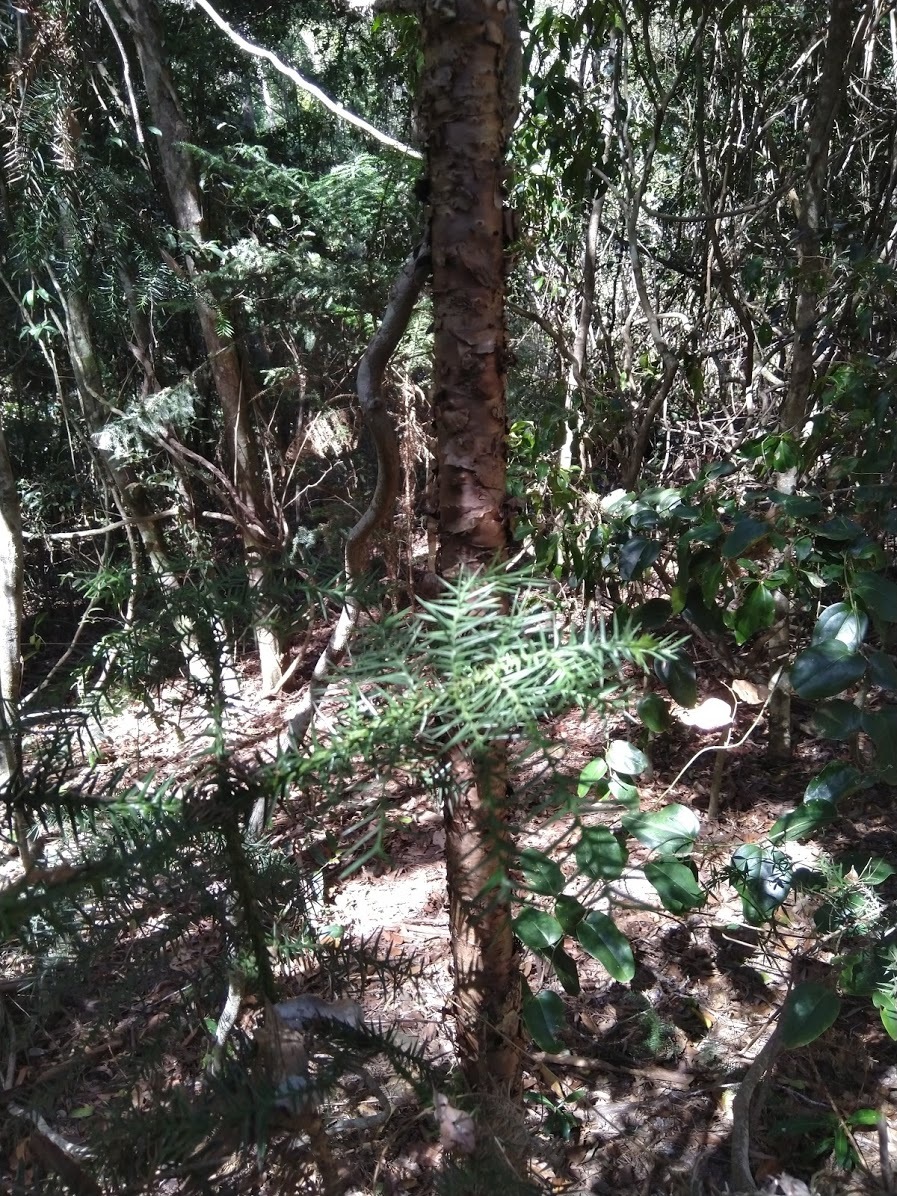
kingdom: Plantae
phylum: Tracheophyta
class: Pinopsida
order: Pinales
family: Araucariaceae
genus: Araucaria
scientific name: Araucaria cunninghamii
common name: Colonial pine
